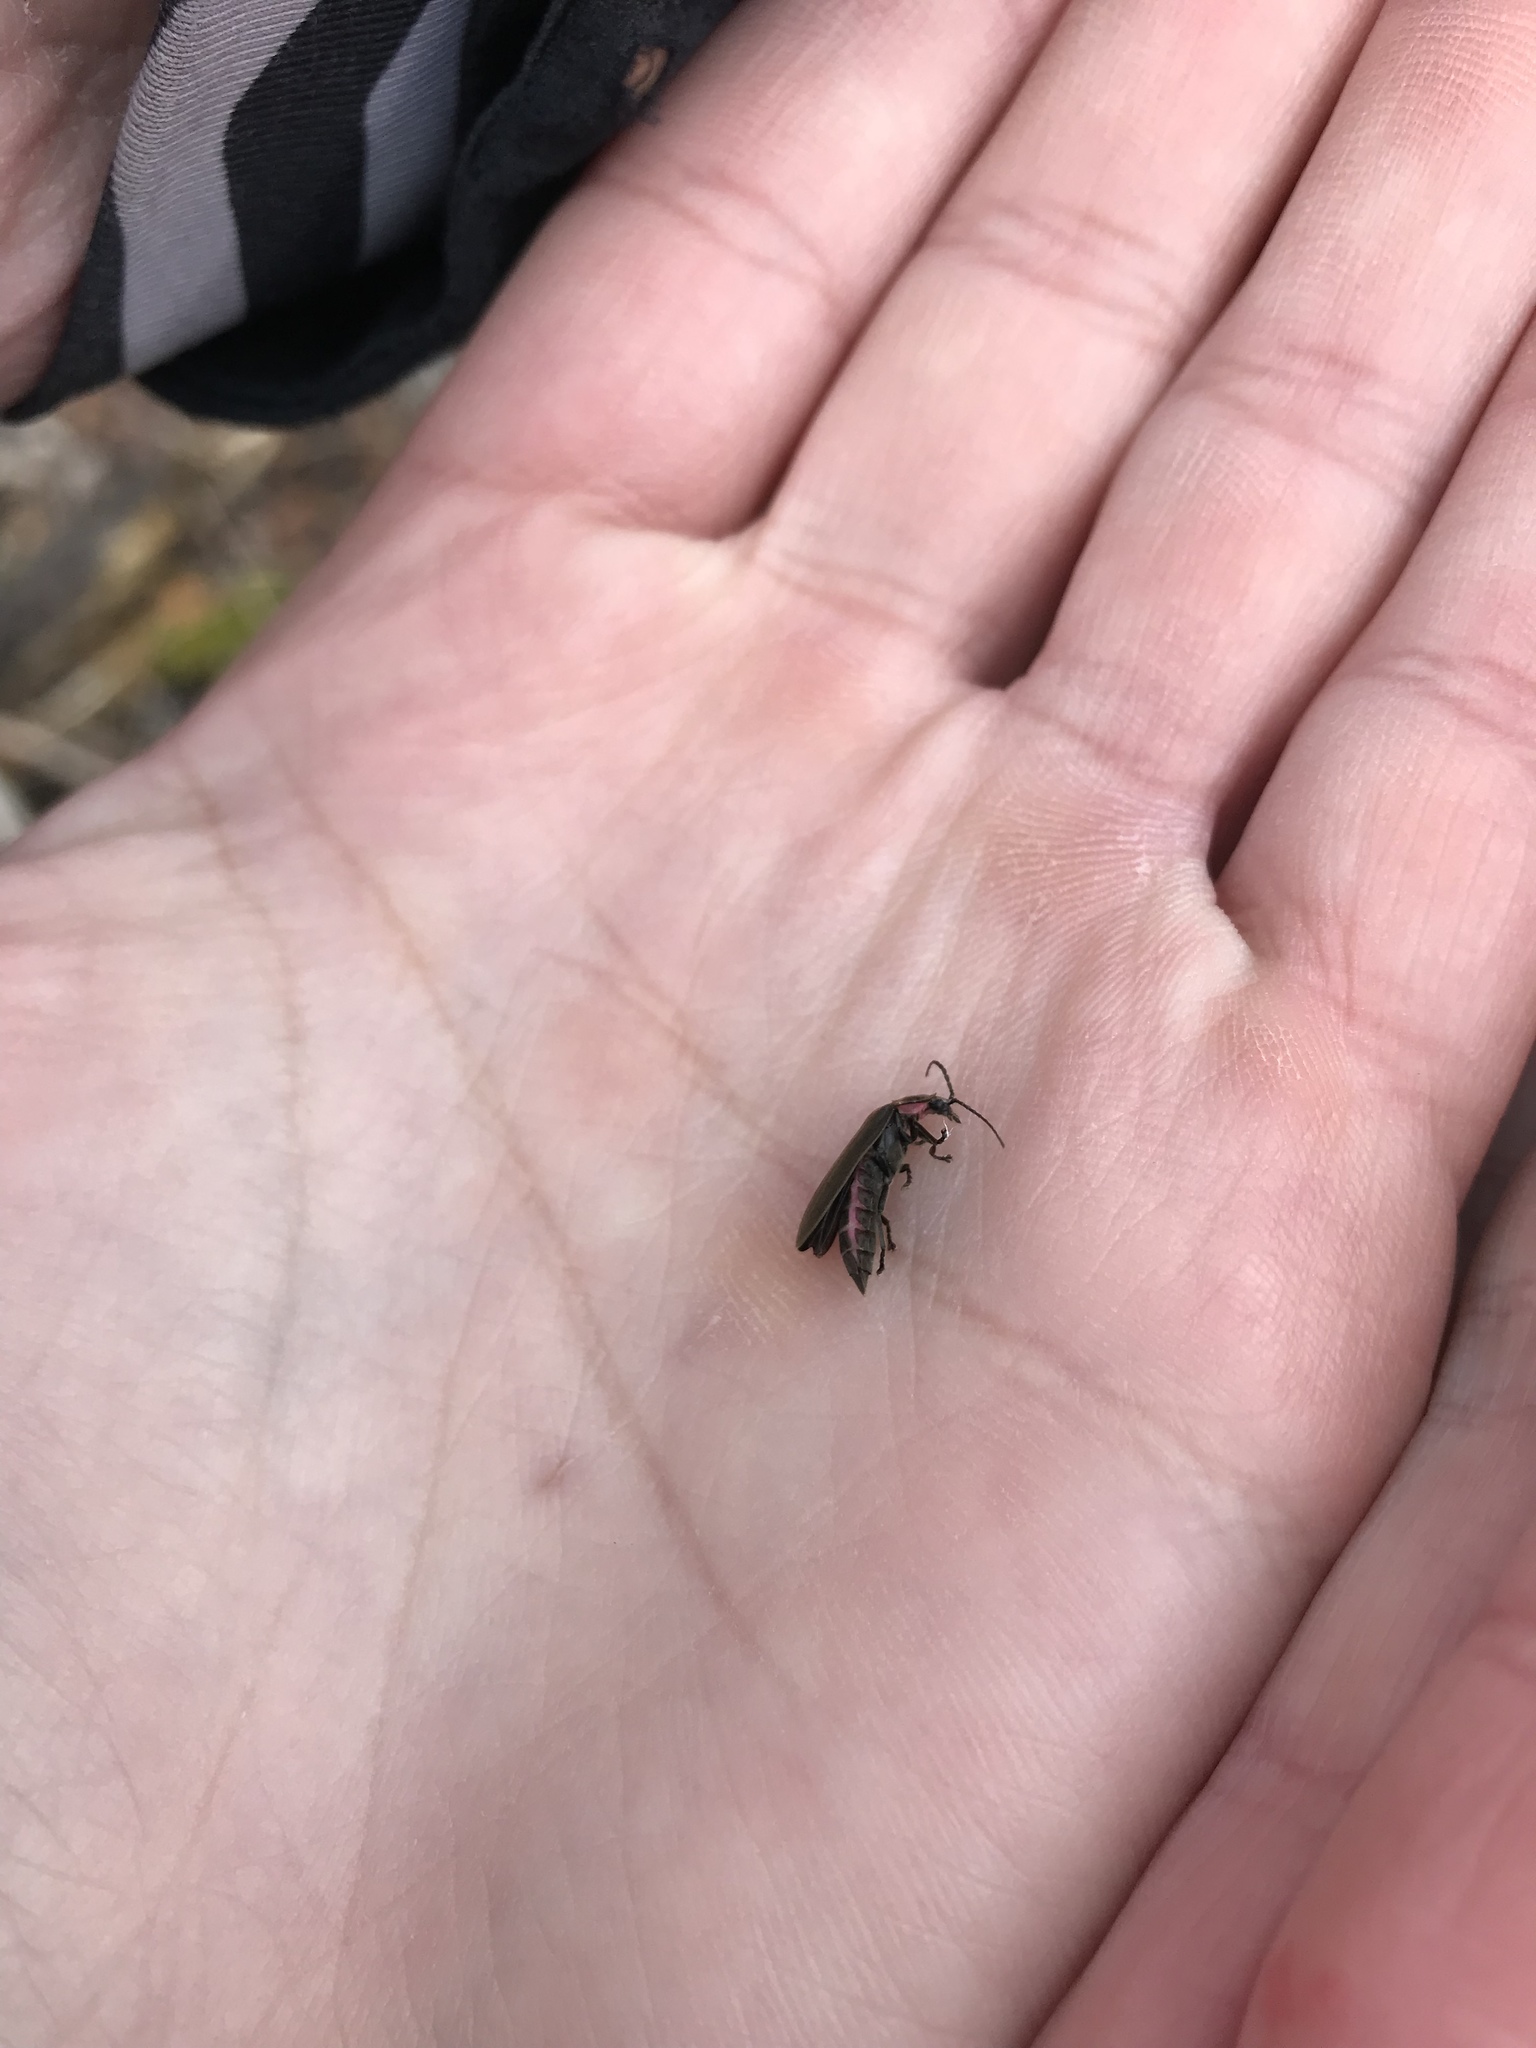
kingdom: Animalia
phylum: Arthropoda
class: Insecta
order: Coleoptera
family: Lampyridae
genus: Photinus
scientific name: Photinus corrusca
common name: Winter firefly
